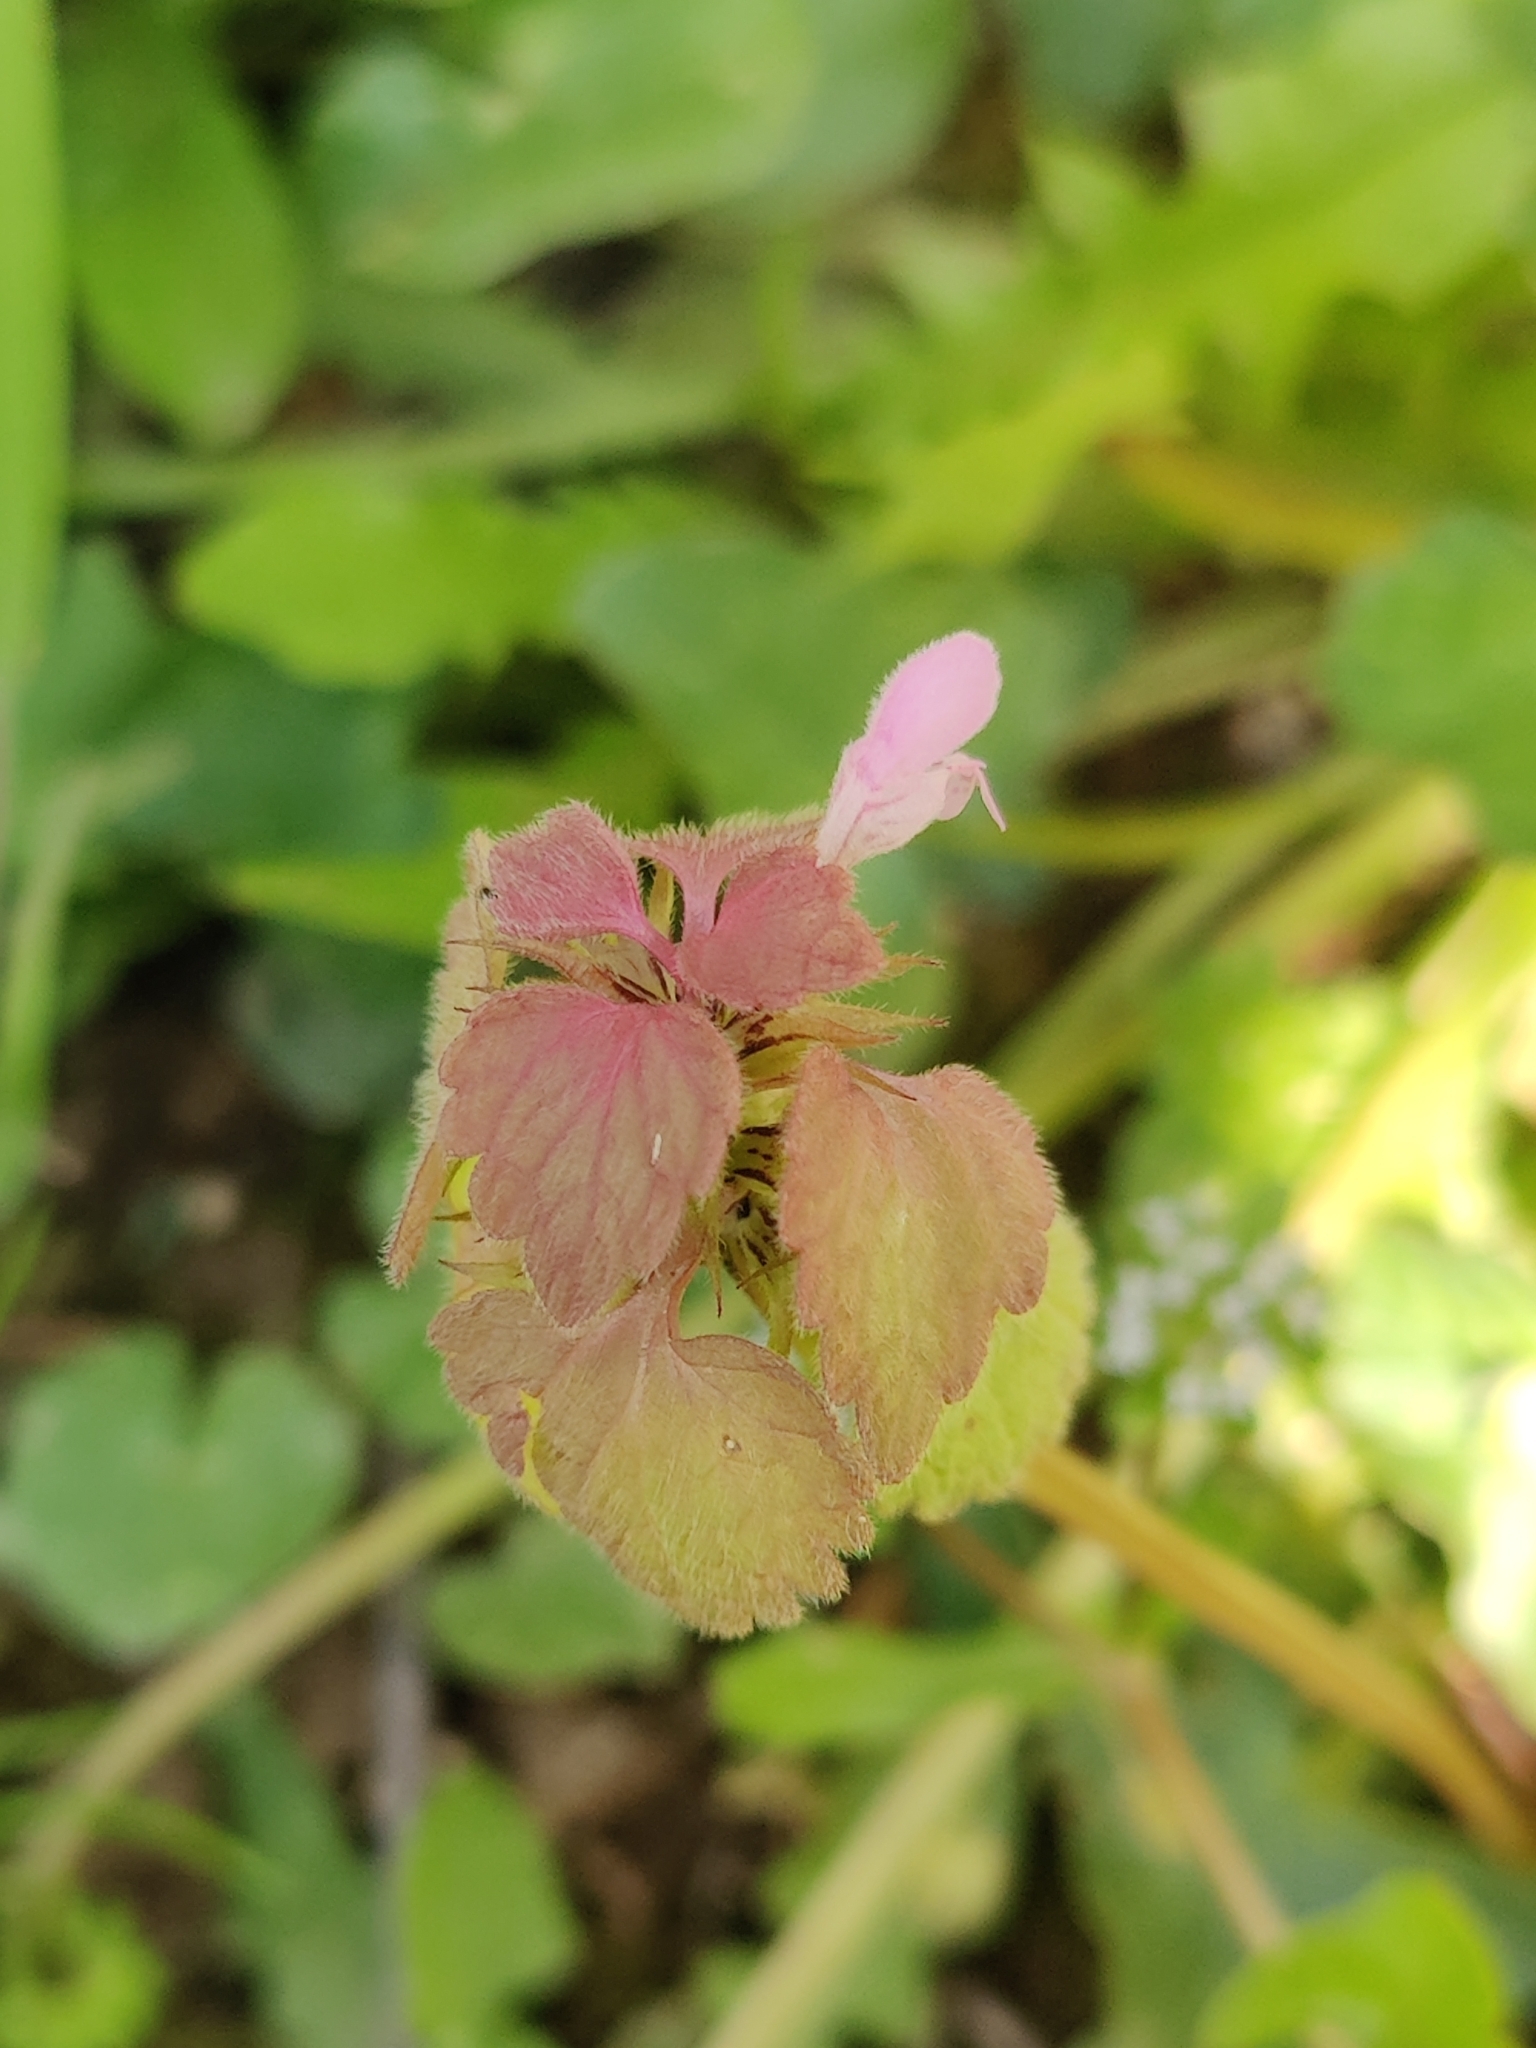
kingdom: Plantae
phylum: Tracheophyta
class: Magnoliopsida
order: Lamiales
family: Lamiaceae
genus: Lamium
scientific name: Lamium purpureum
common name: Red dead-nettle
